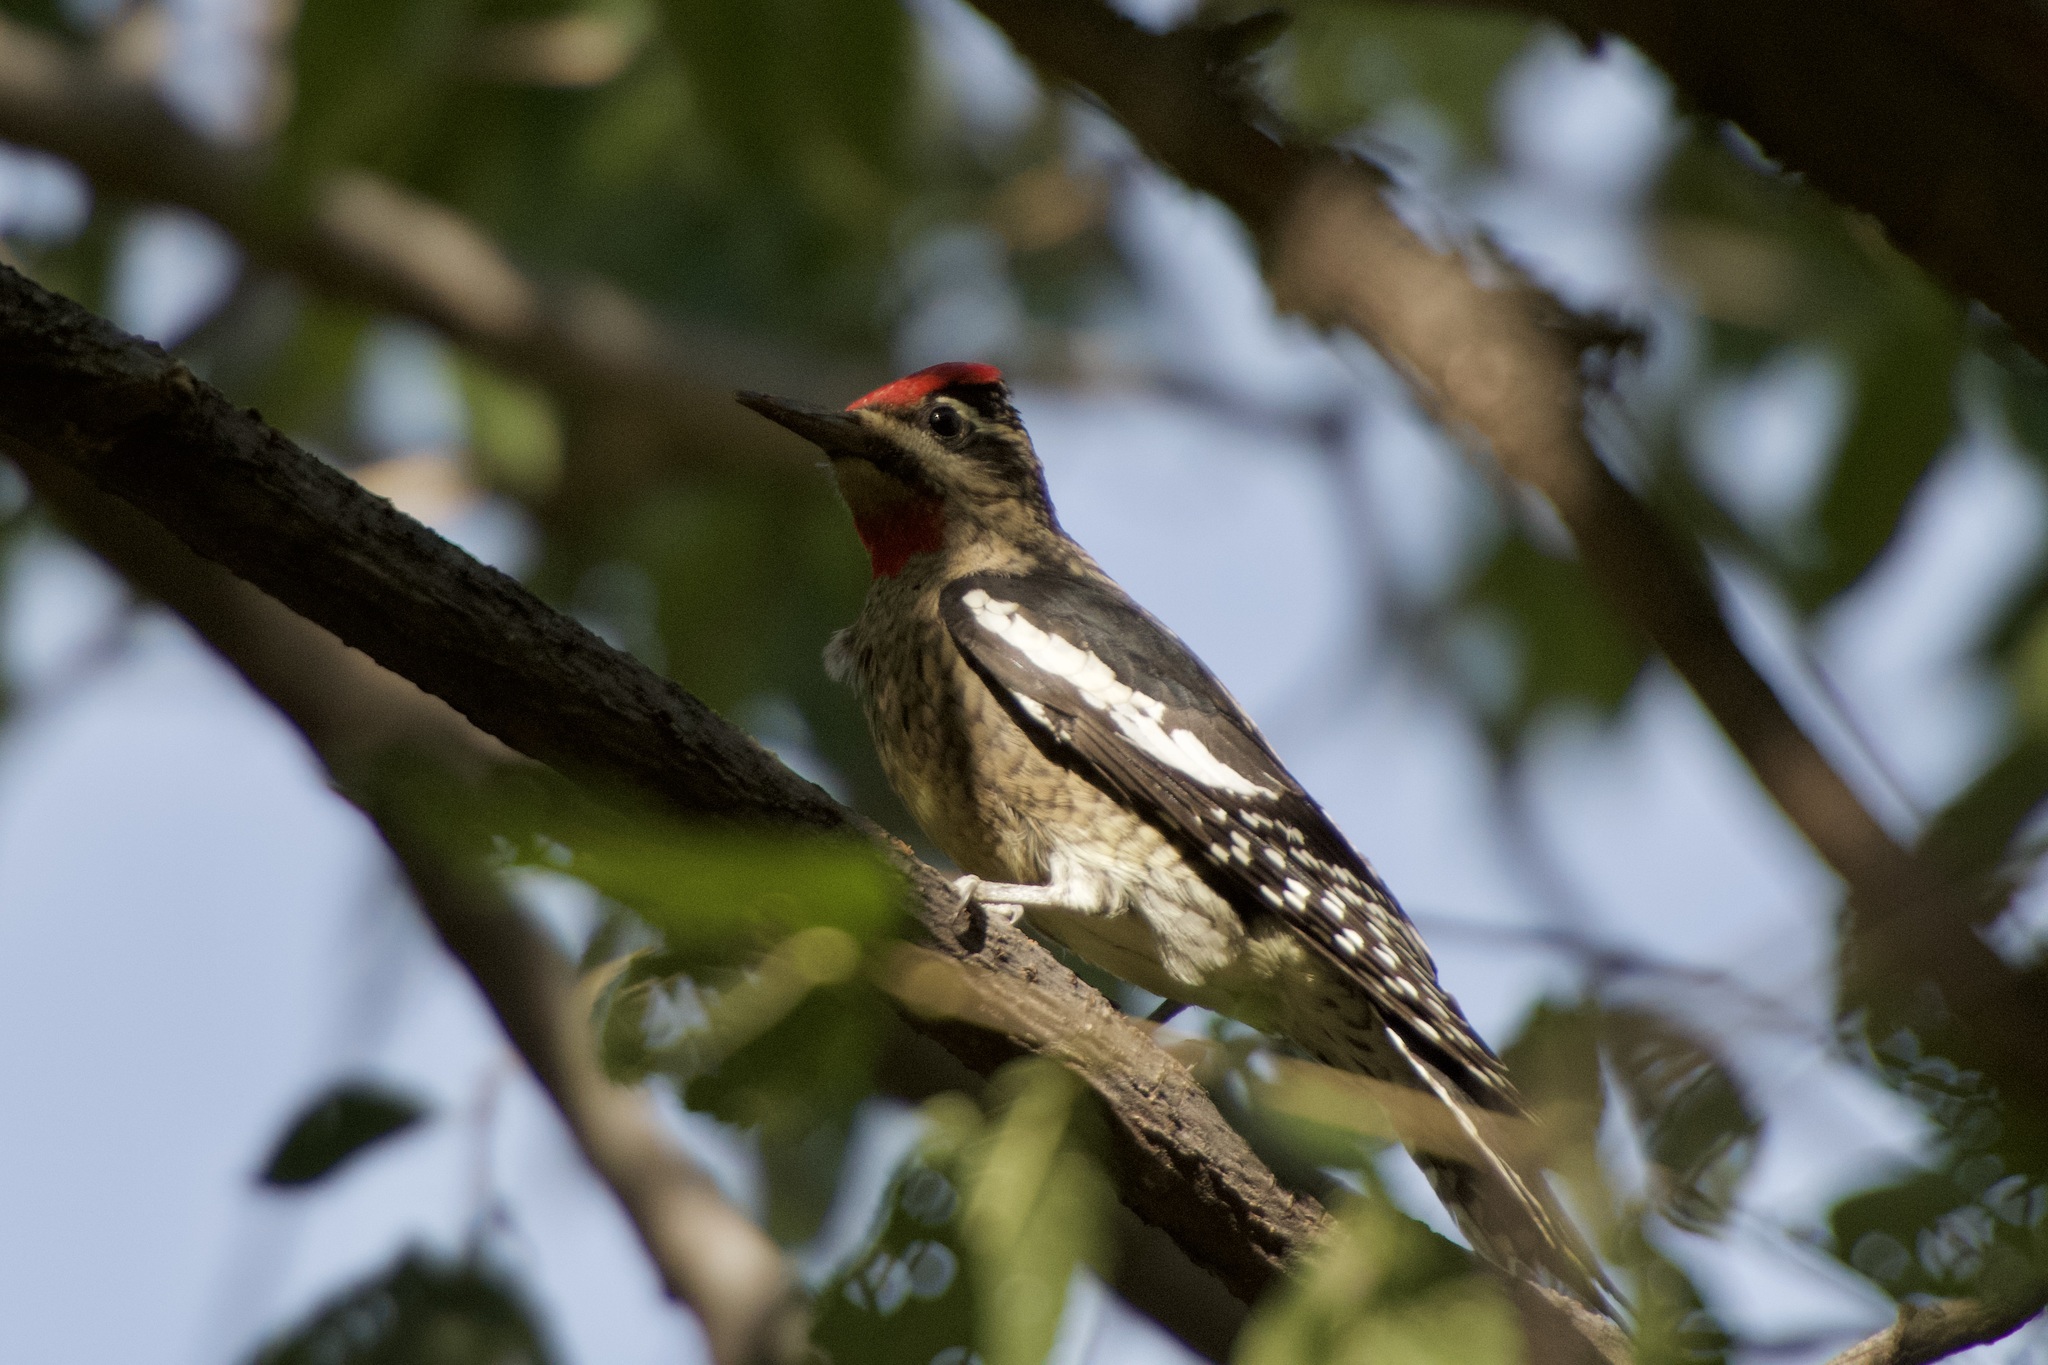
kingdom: Animalia
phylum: Chordata
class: Aves
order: Piciformes
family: Picidae
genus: Sphyrapicus
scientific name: Sphyrapicus nuchalis
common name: Red-naped sapsucker
